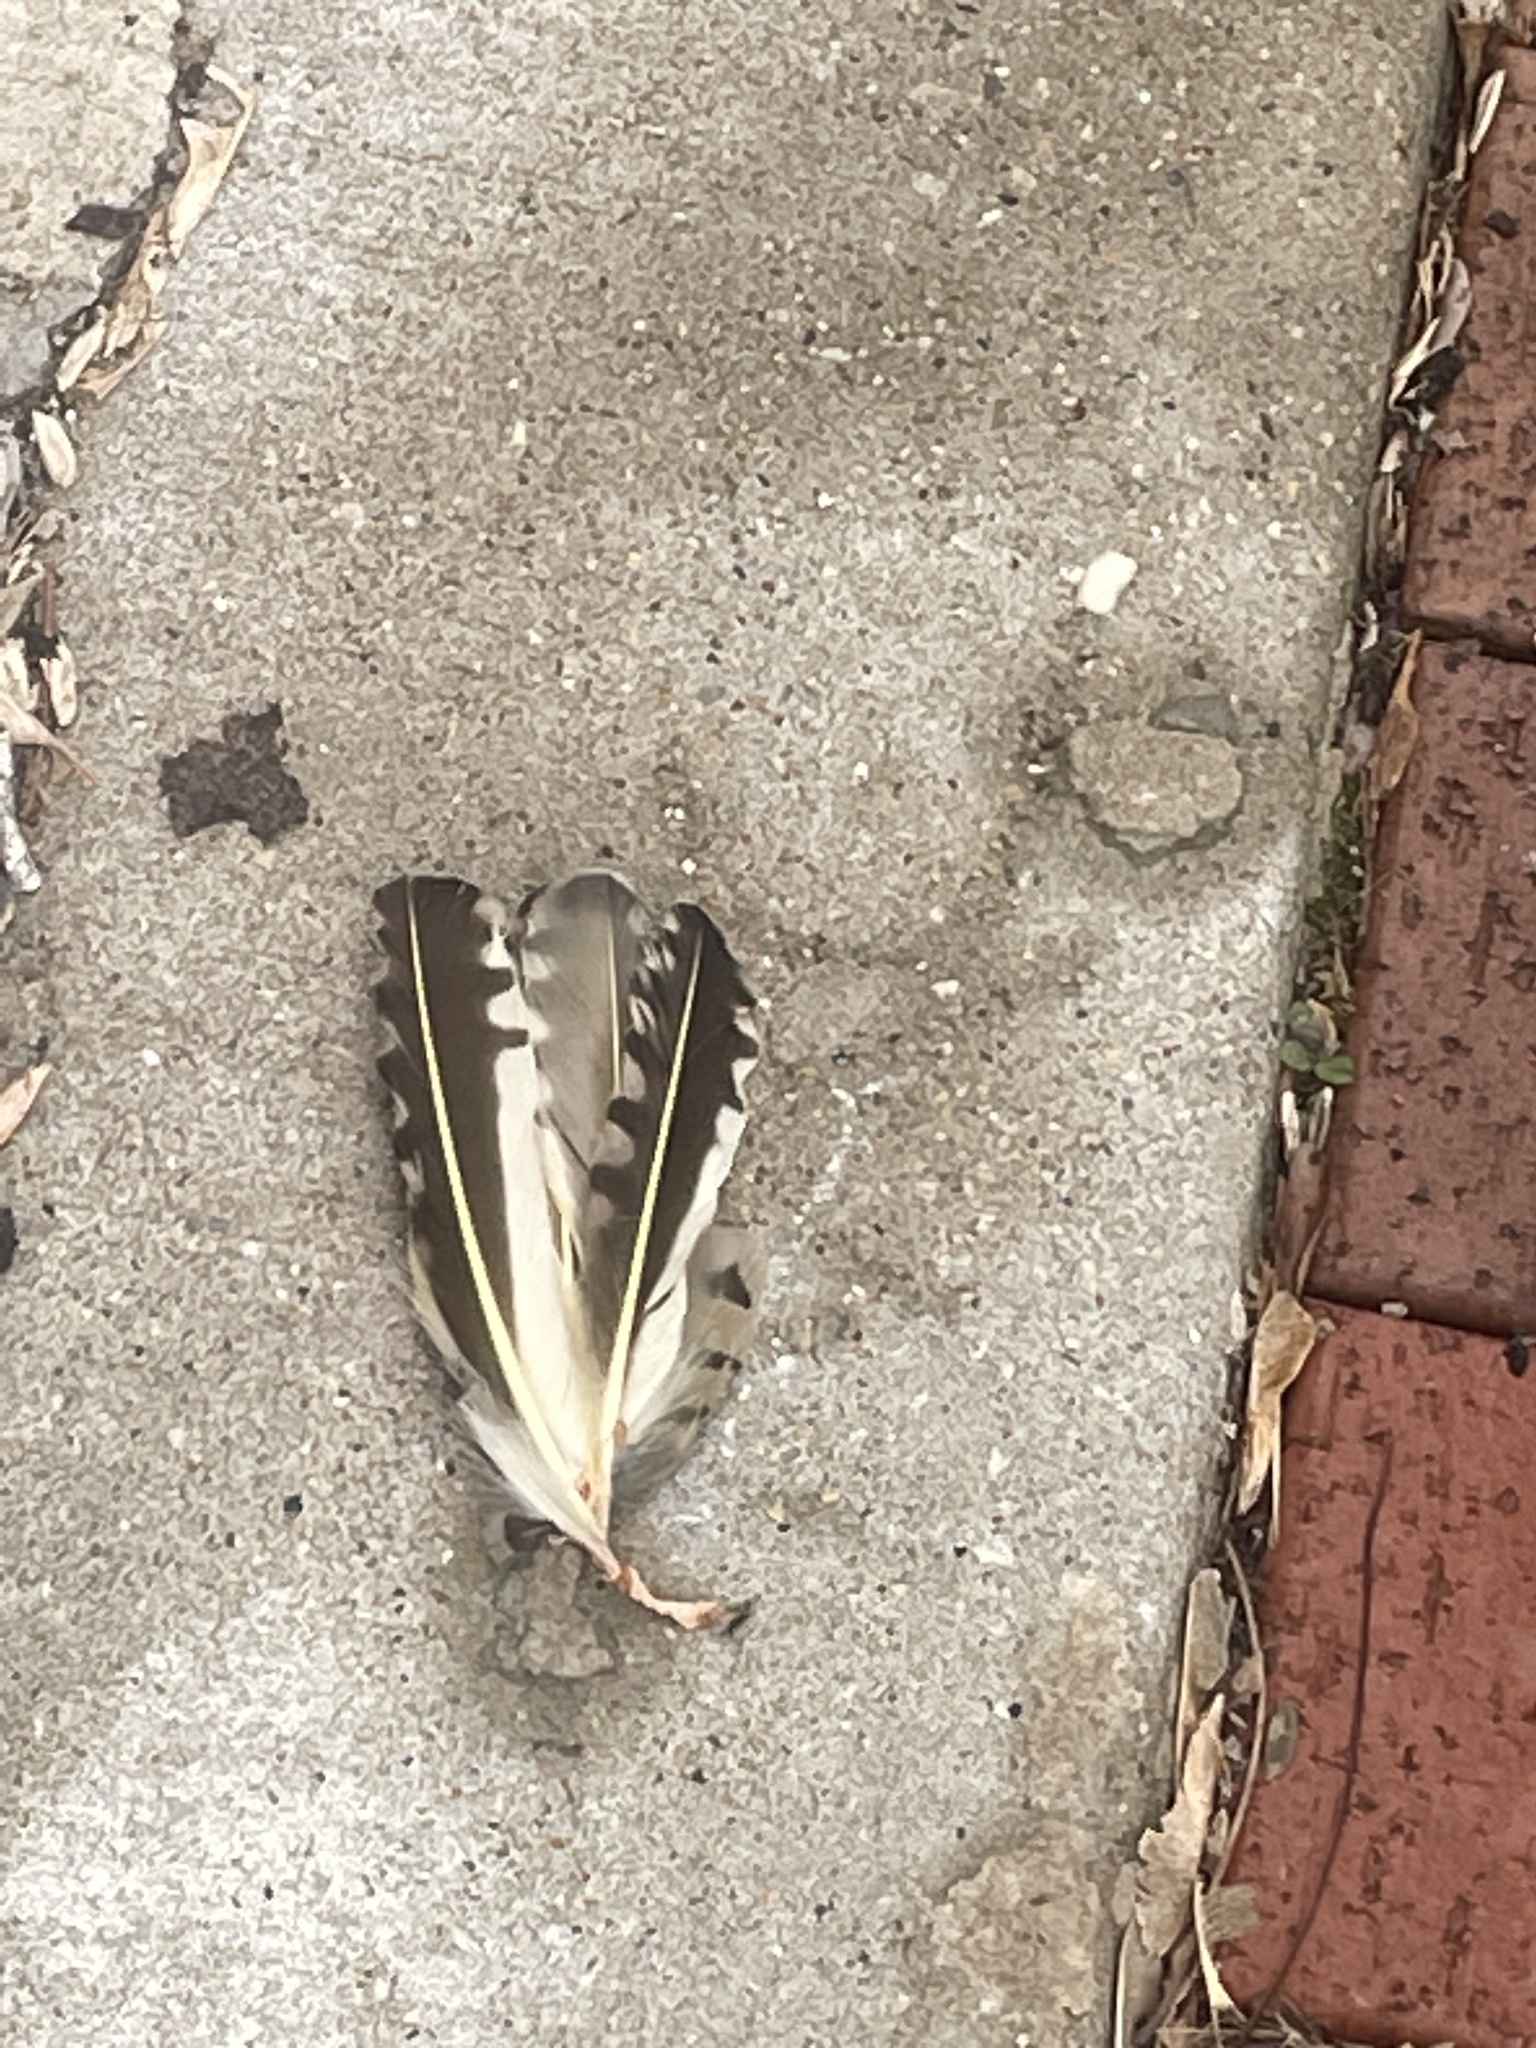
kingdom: Animalia
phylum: Chordata
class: Aves
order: Piciformes
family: Picidae
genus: Colaptes
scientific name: Colaptes auratus
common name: Northern flicker
